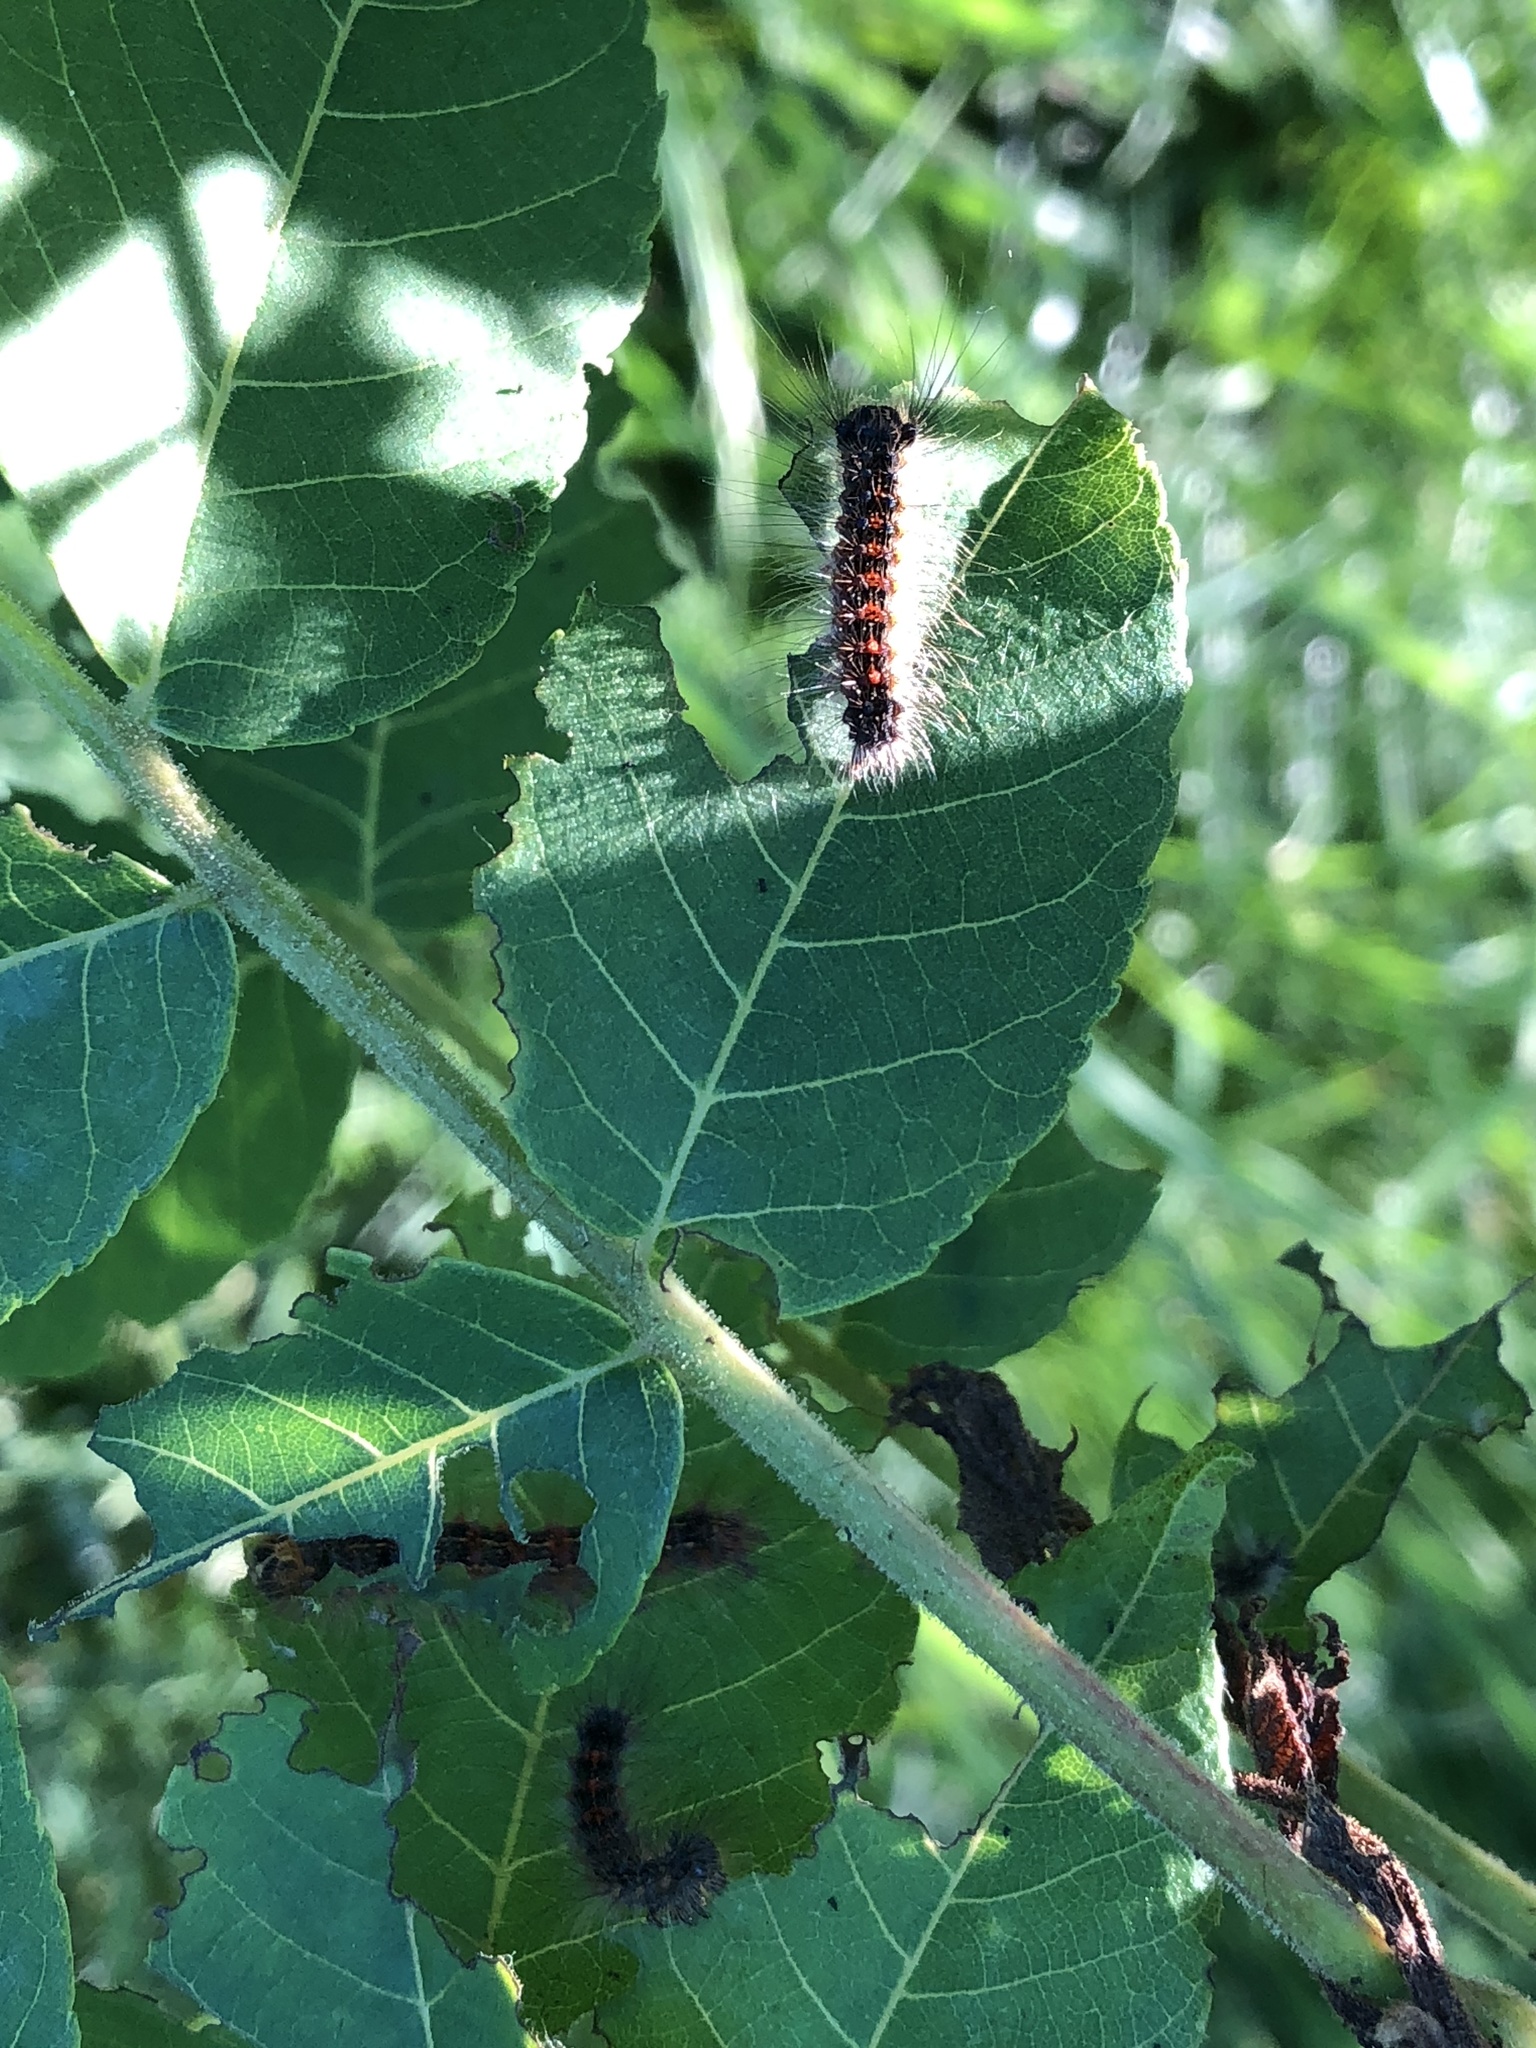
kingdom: Animalia
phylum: Arthropoda
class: Insecta
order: Lepidoptera
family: Erebidae
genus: Lymantria
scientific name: Lymantria dispar
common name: Gypsy moth
